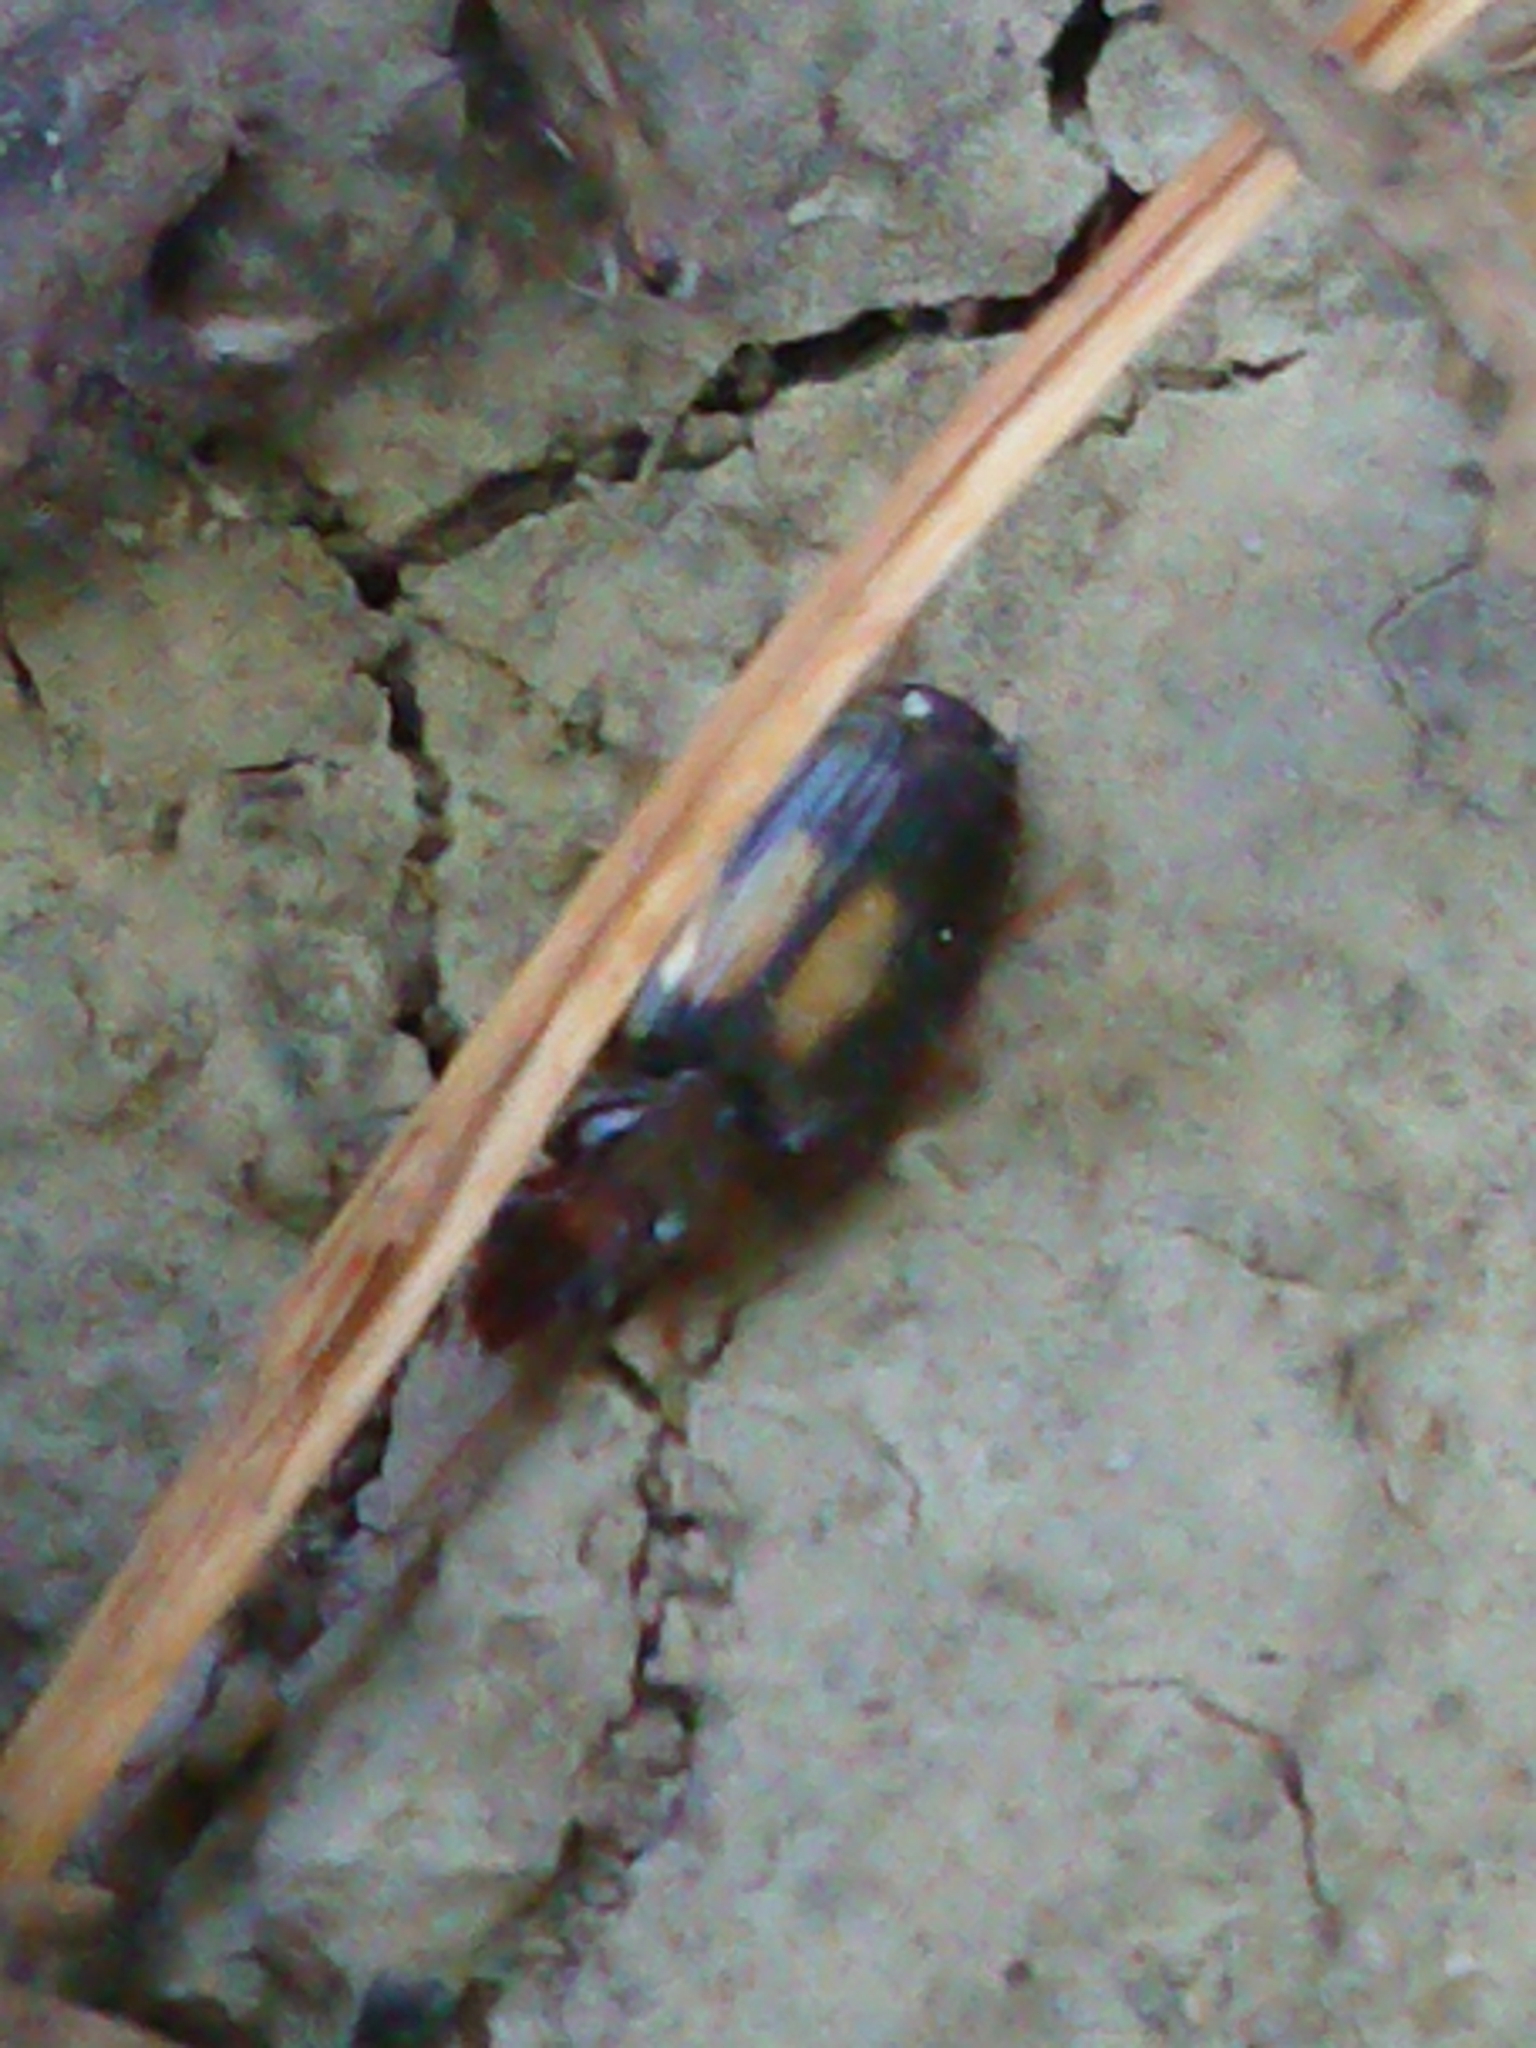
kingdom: Animalia
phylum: Arthropoda
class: Insecta
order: Coleoptera
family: Carabidae
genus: Agonocheila
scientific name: Agonocheila antipodum
